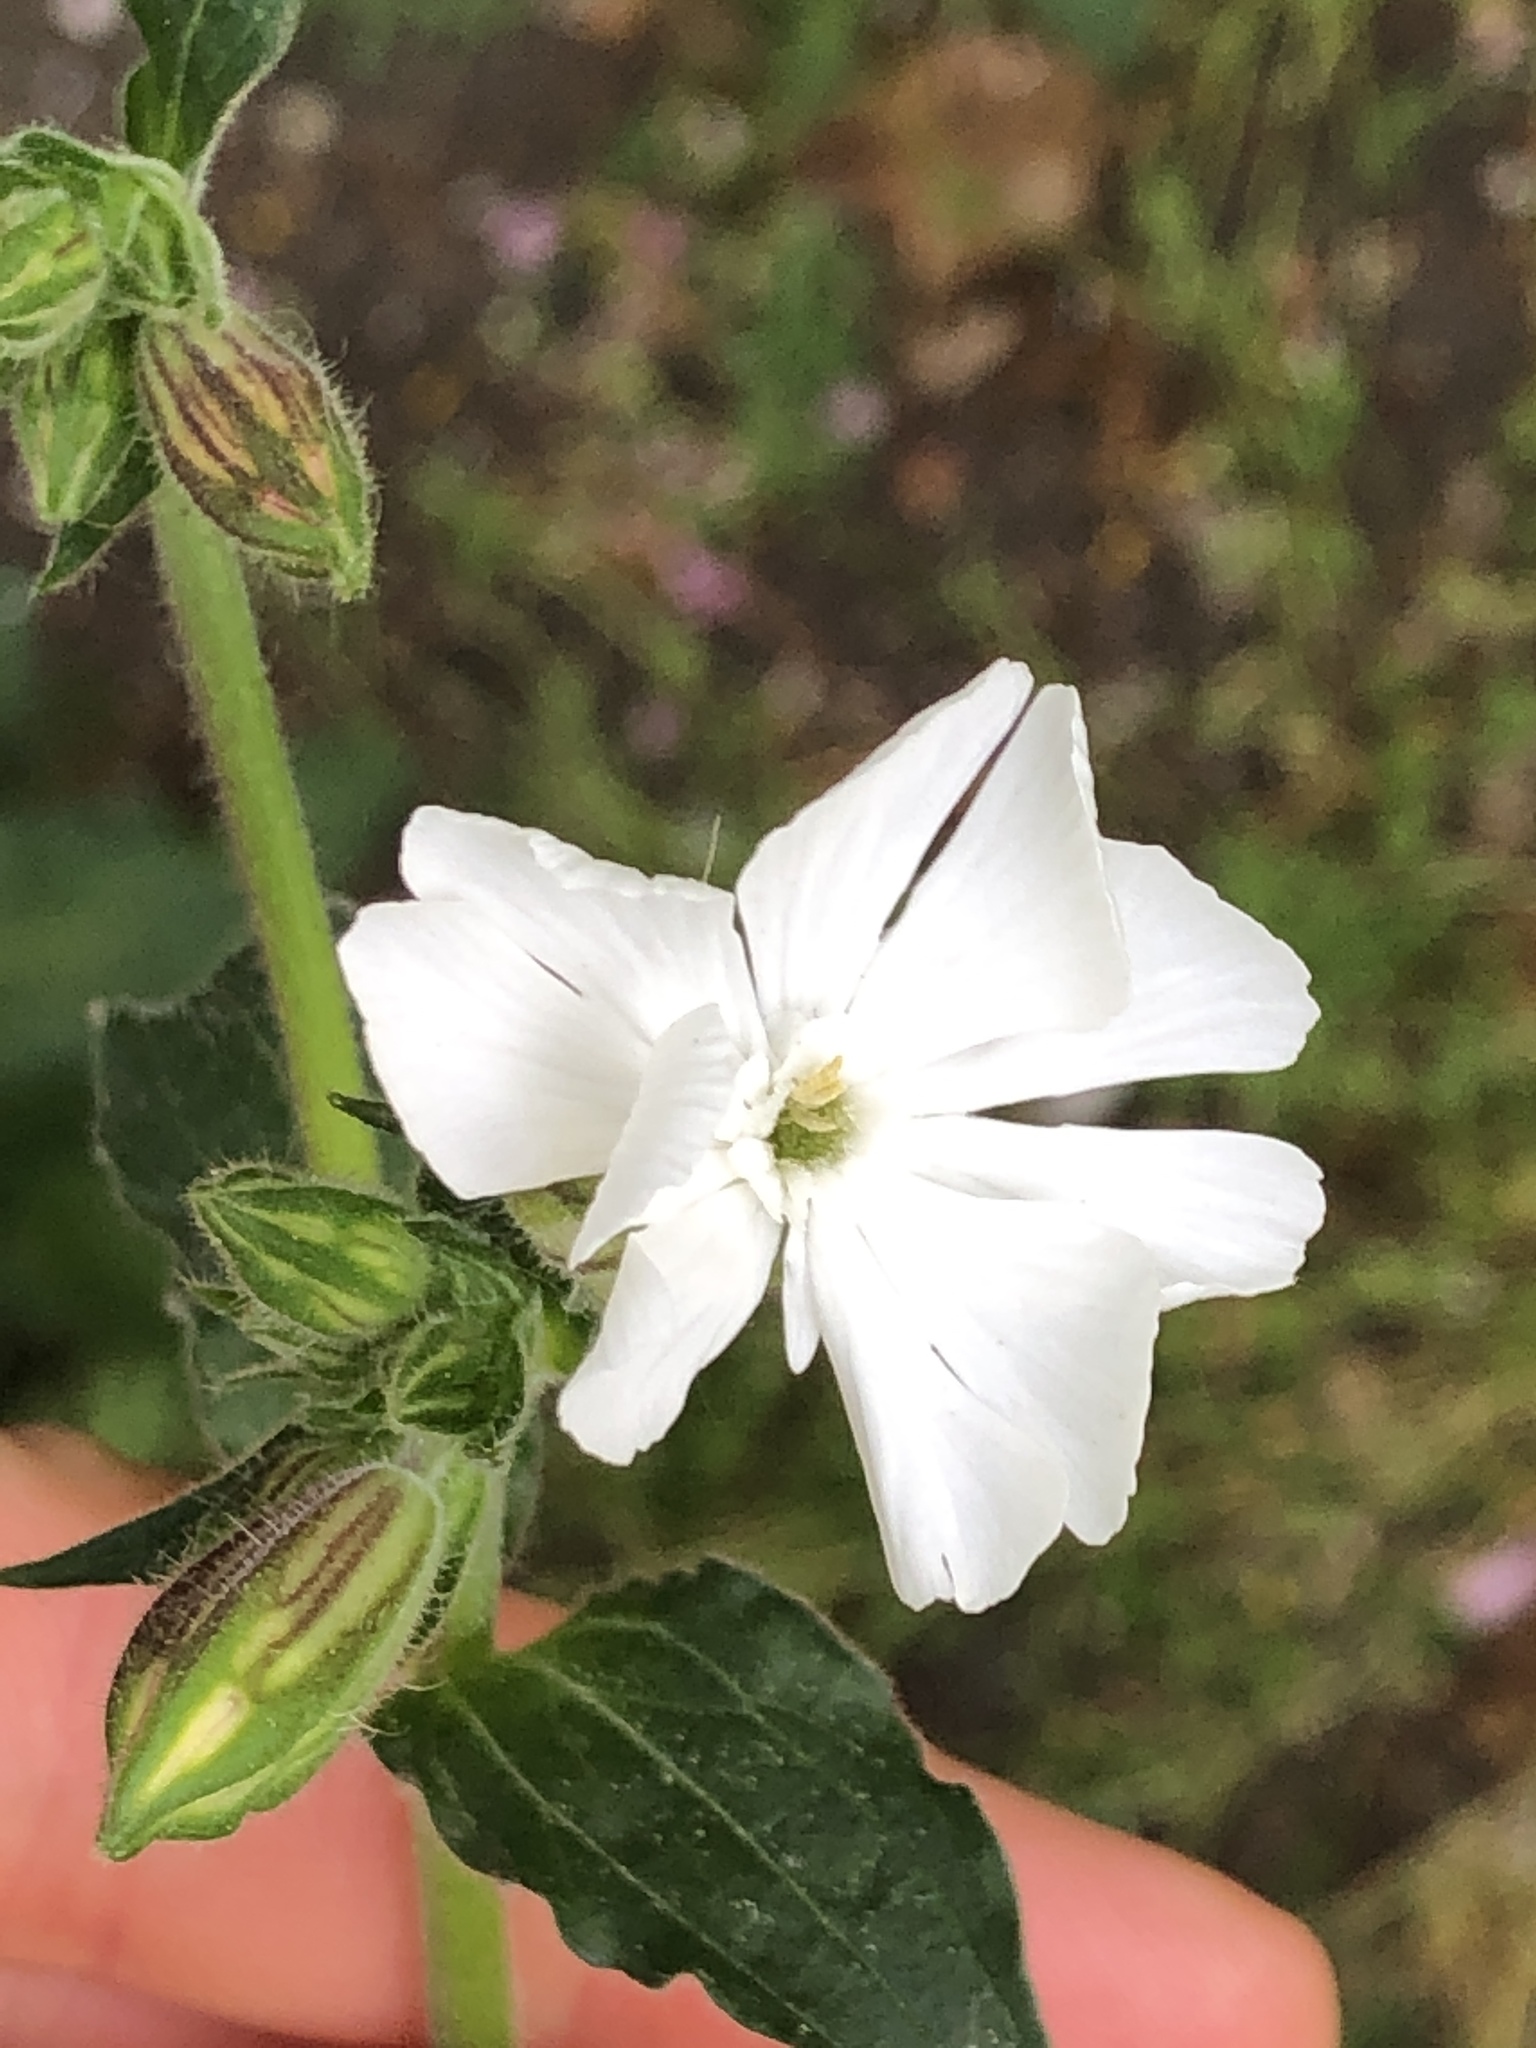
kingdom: Plantae
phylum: Tracheophyta
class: Magnoliopsida
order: Caryophyllales
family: Caryophyllaceae
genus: Silene
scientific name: Silene latifolia
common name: White campion
